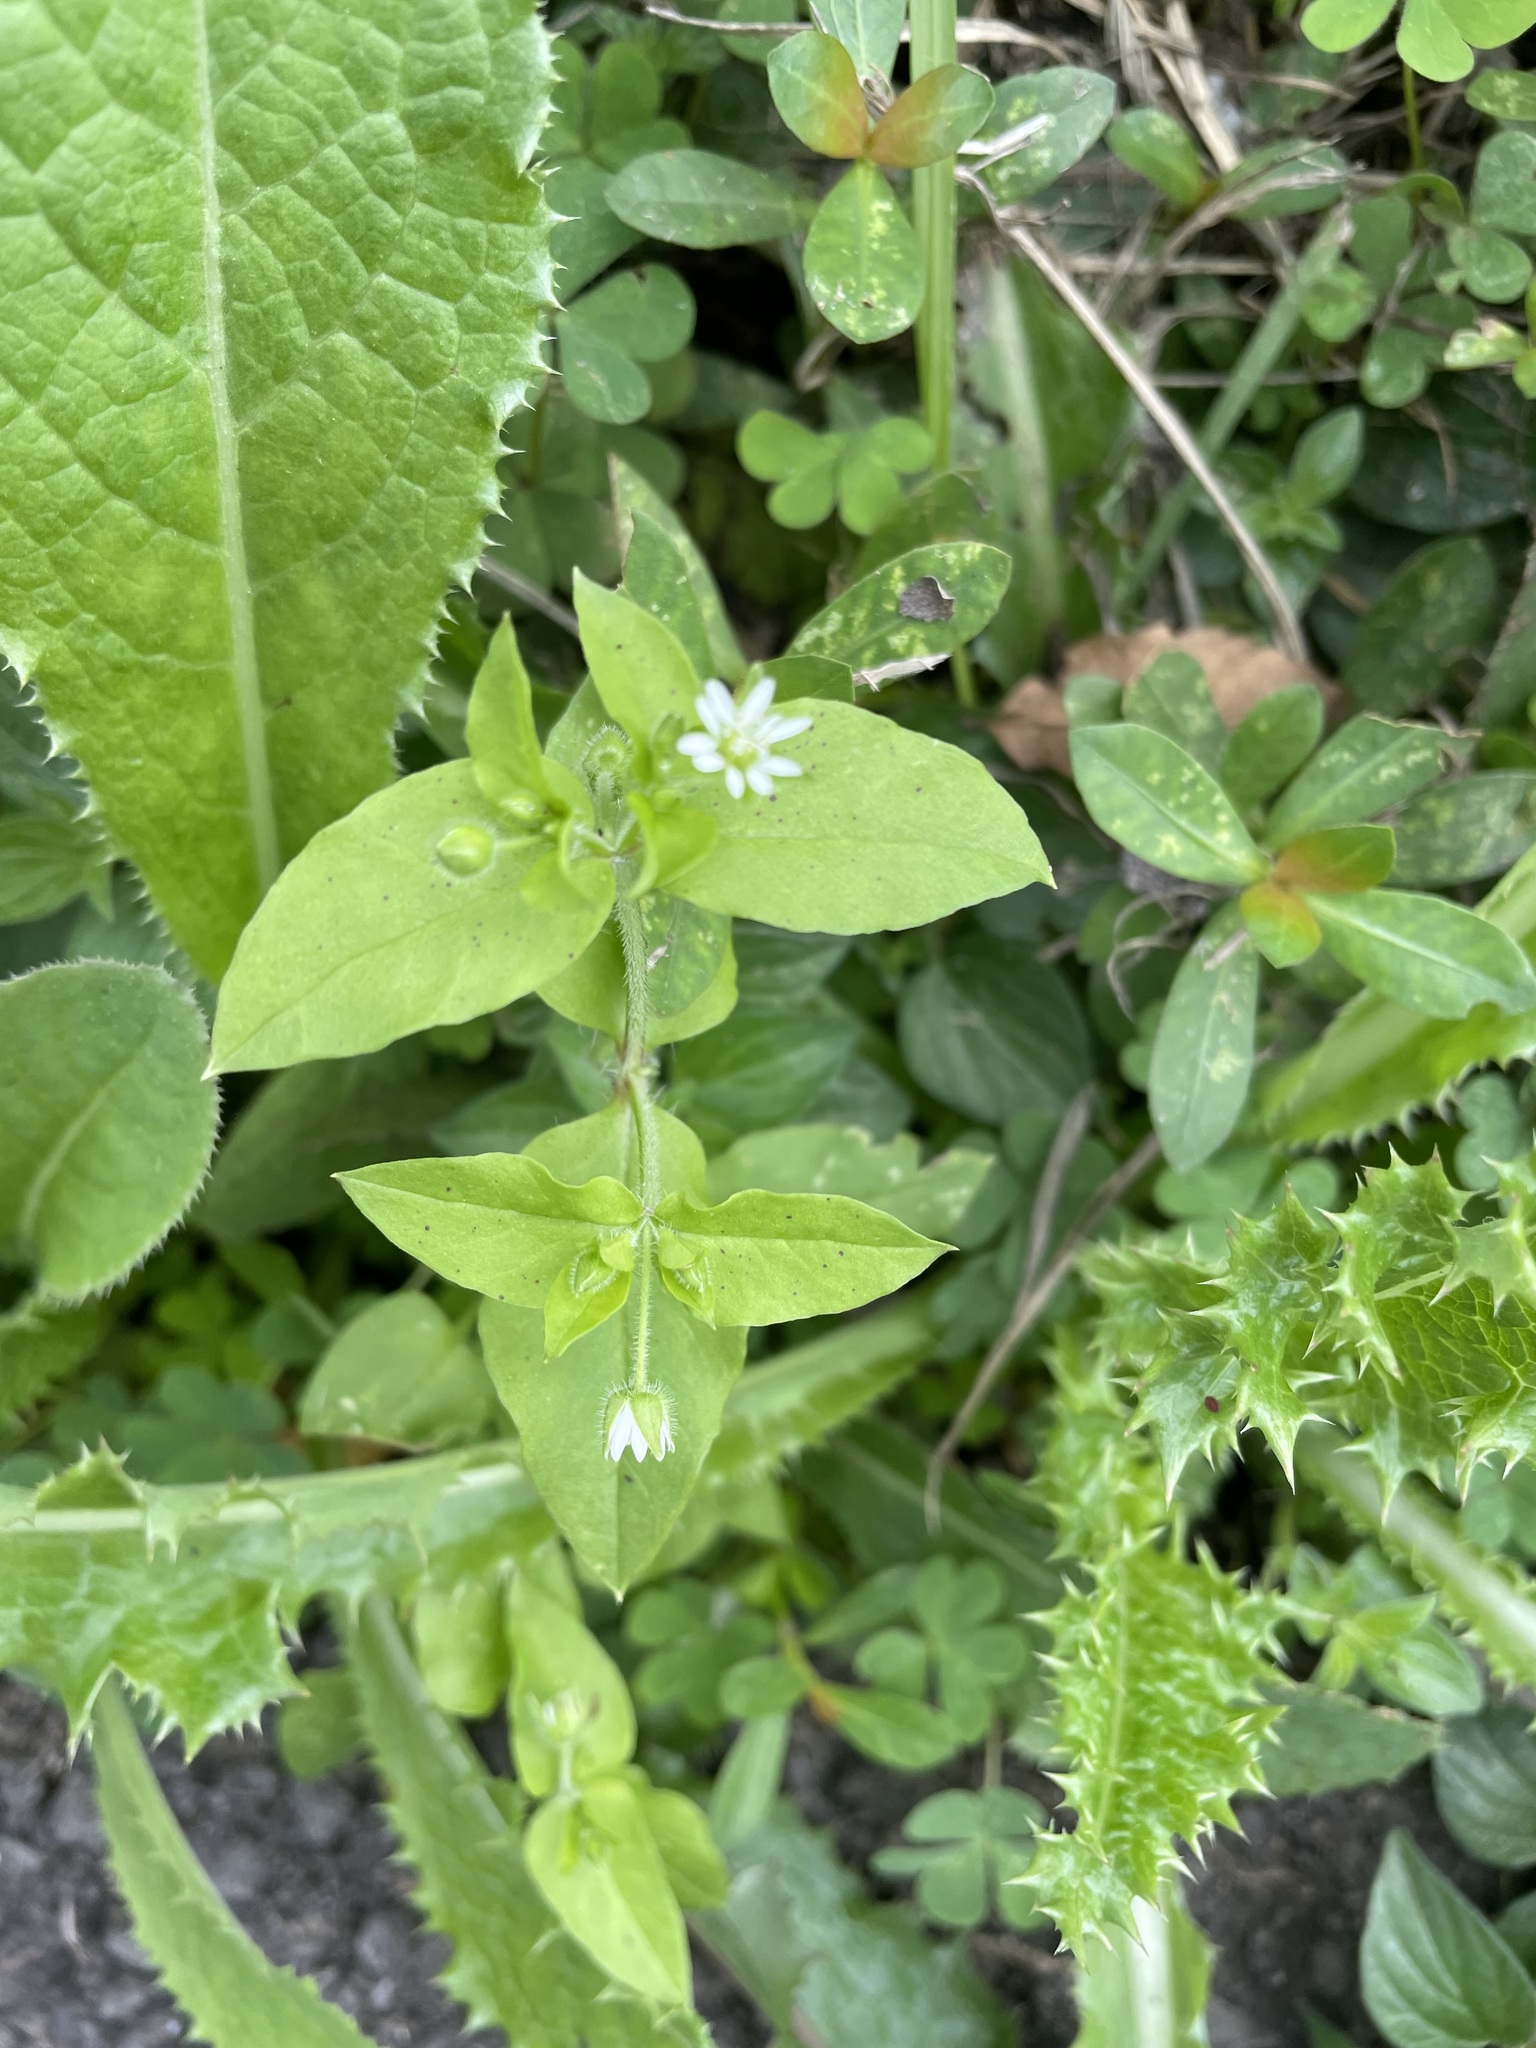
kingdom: Plantae
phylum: Tracheophyta
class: Magnoliopsida
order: Caryophyllales
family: Caryophyllaceae
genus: Stellaria
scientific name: Stellaria aquatica
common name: Water chickweed
